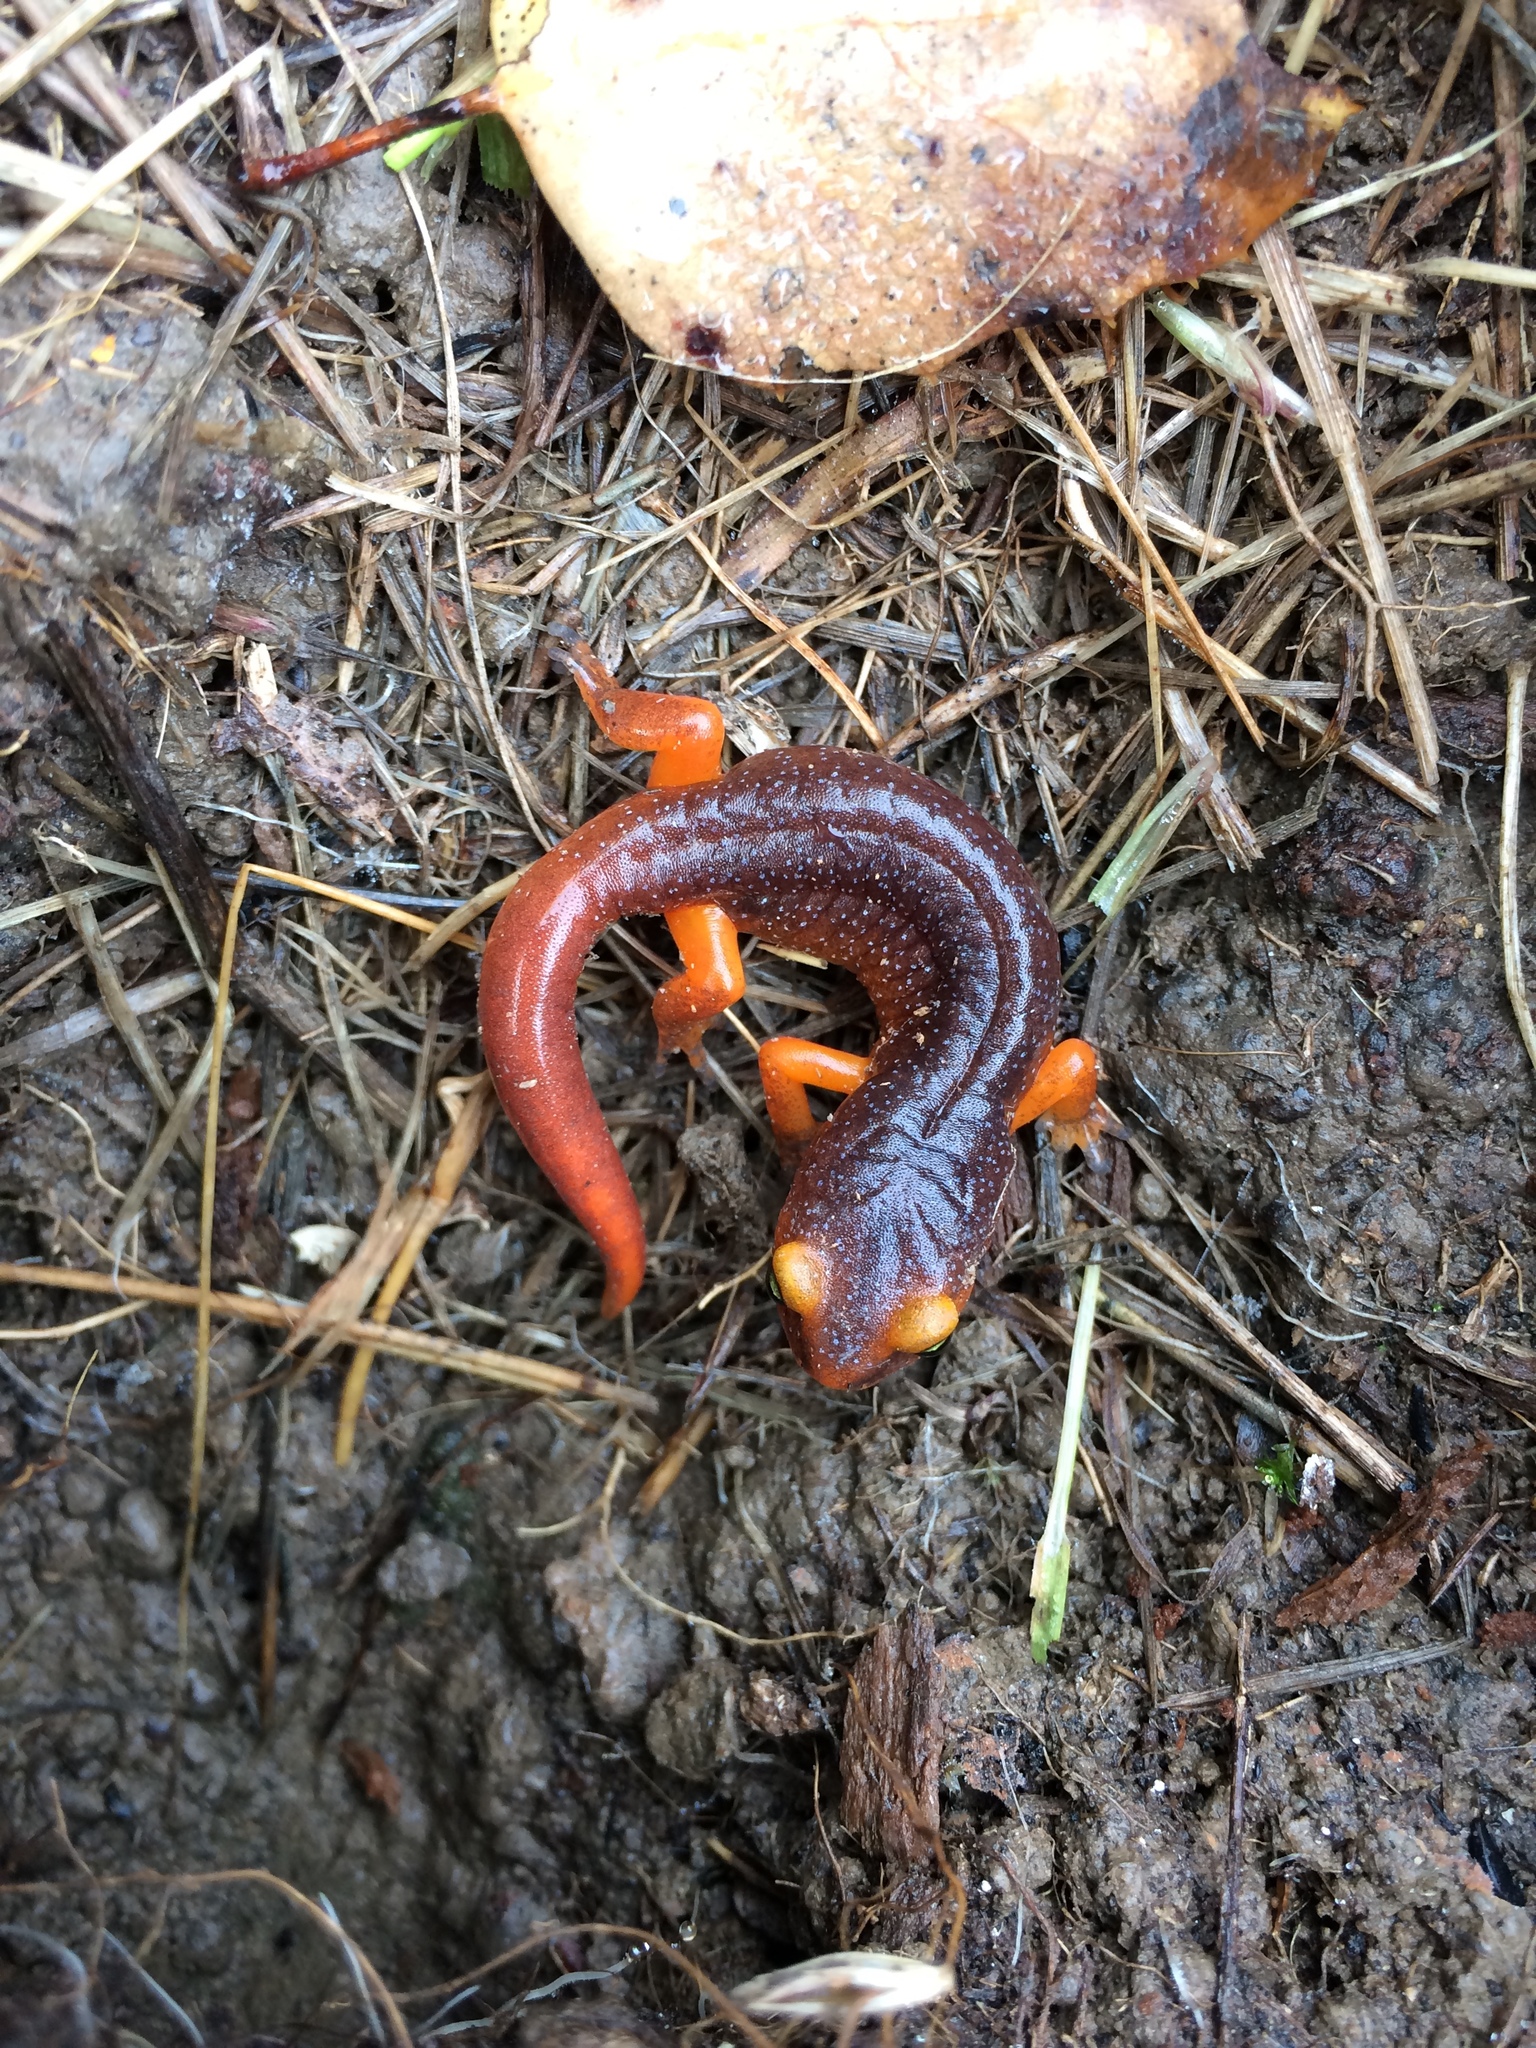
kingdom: Animalia
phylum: Chordata
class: Amphibia
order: Caudata
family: Plethodontidae
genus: Ensatina
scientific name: Ensatina eschscholtzii
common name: Ensatina
